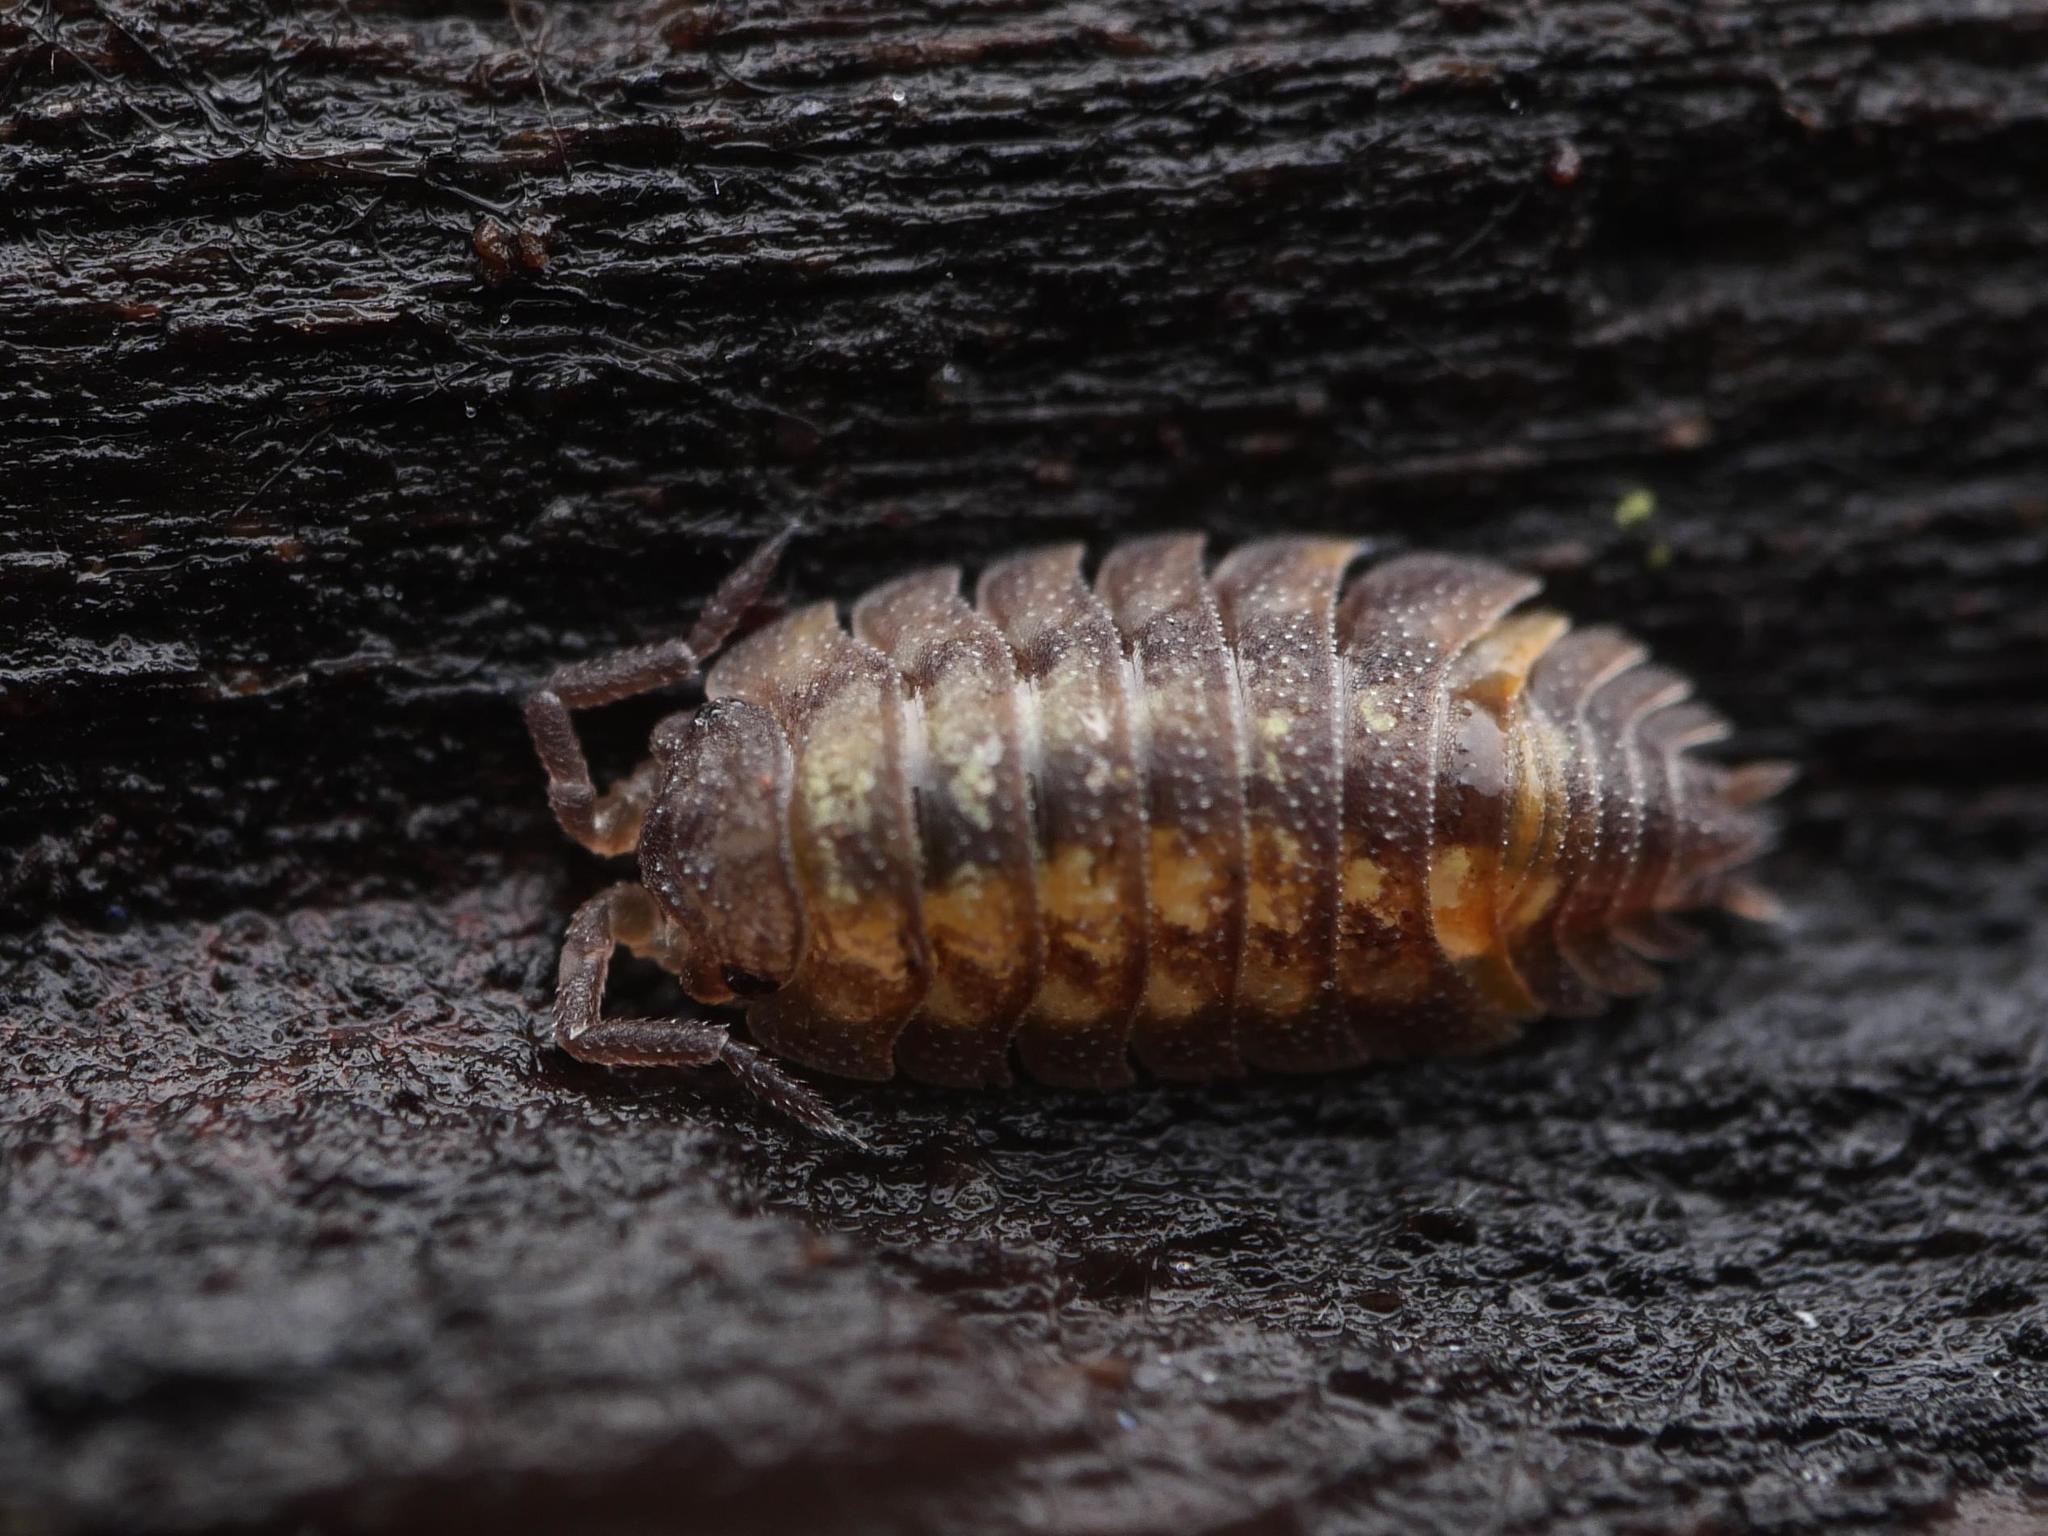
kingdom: Animalia
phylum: Arthropoda
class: Malacostraca
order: Isopoda
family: Oniscidae
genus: Oniscus
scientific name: Oniscus asellus
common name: Common shiny woodlouse
